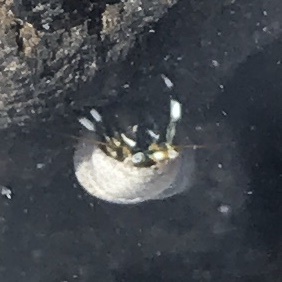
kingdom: Animalia
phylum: Arthropoda
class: Malacostraca
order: Decapoda
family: Diogenidae
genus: Calcinus
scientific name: Calcinus seurati
